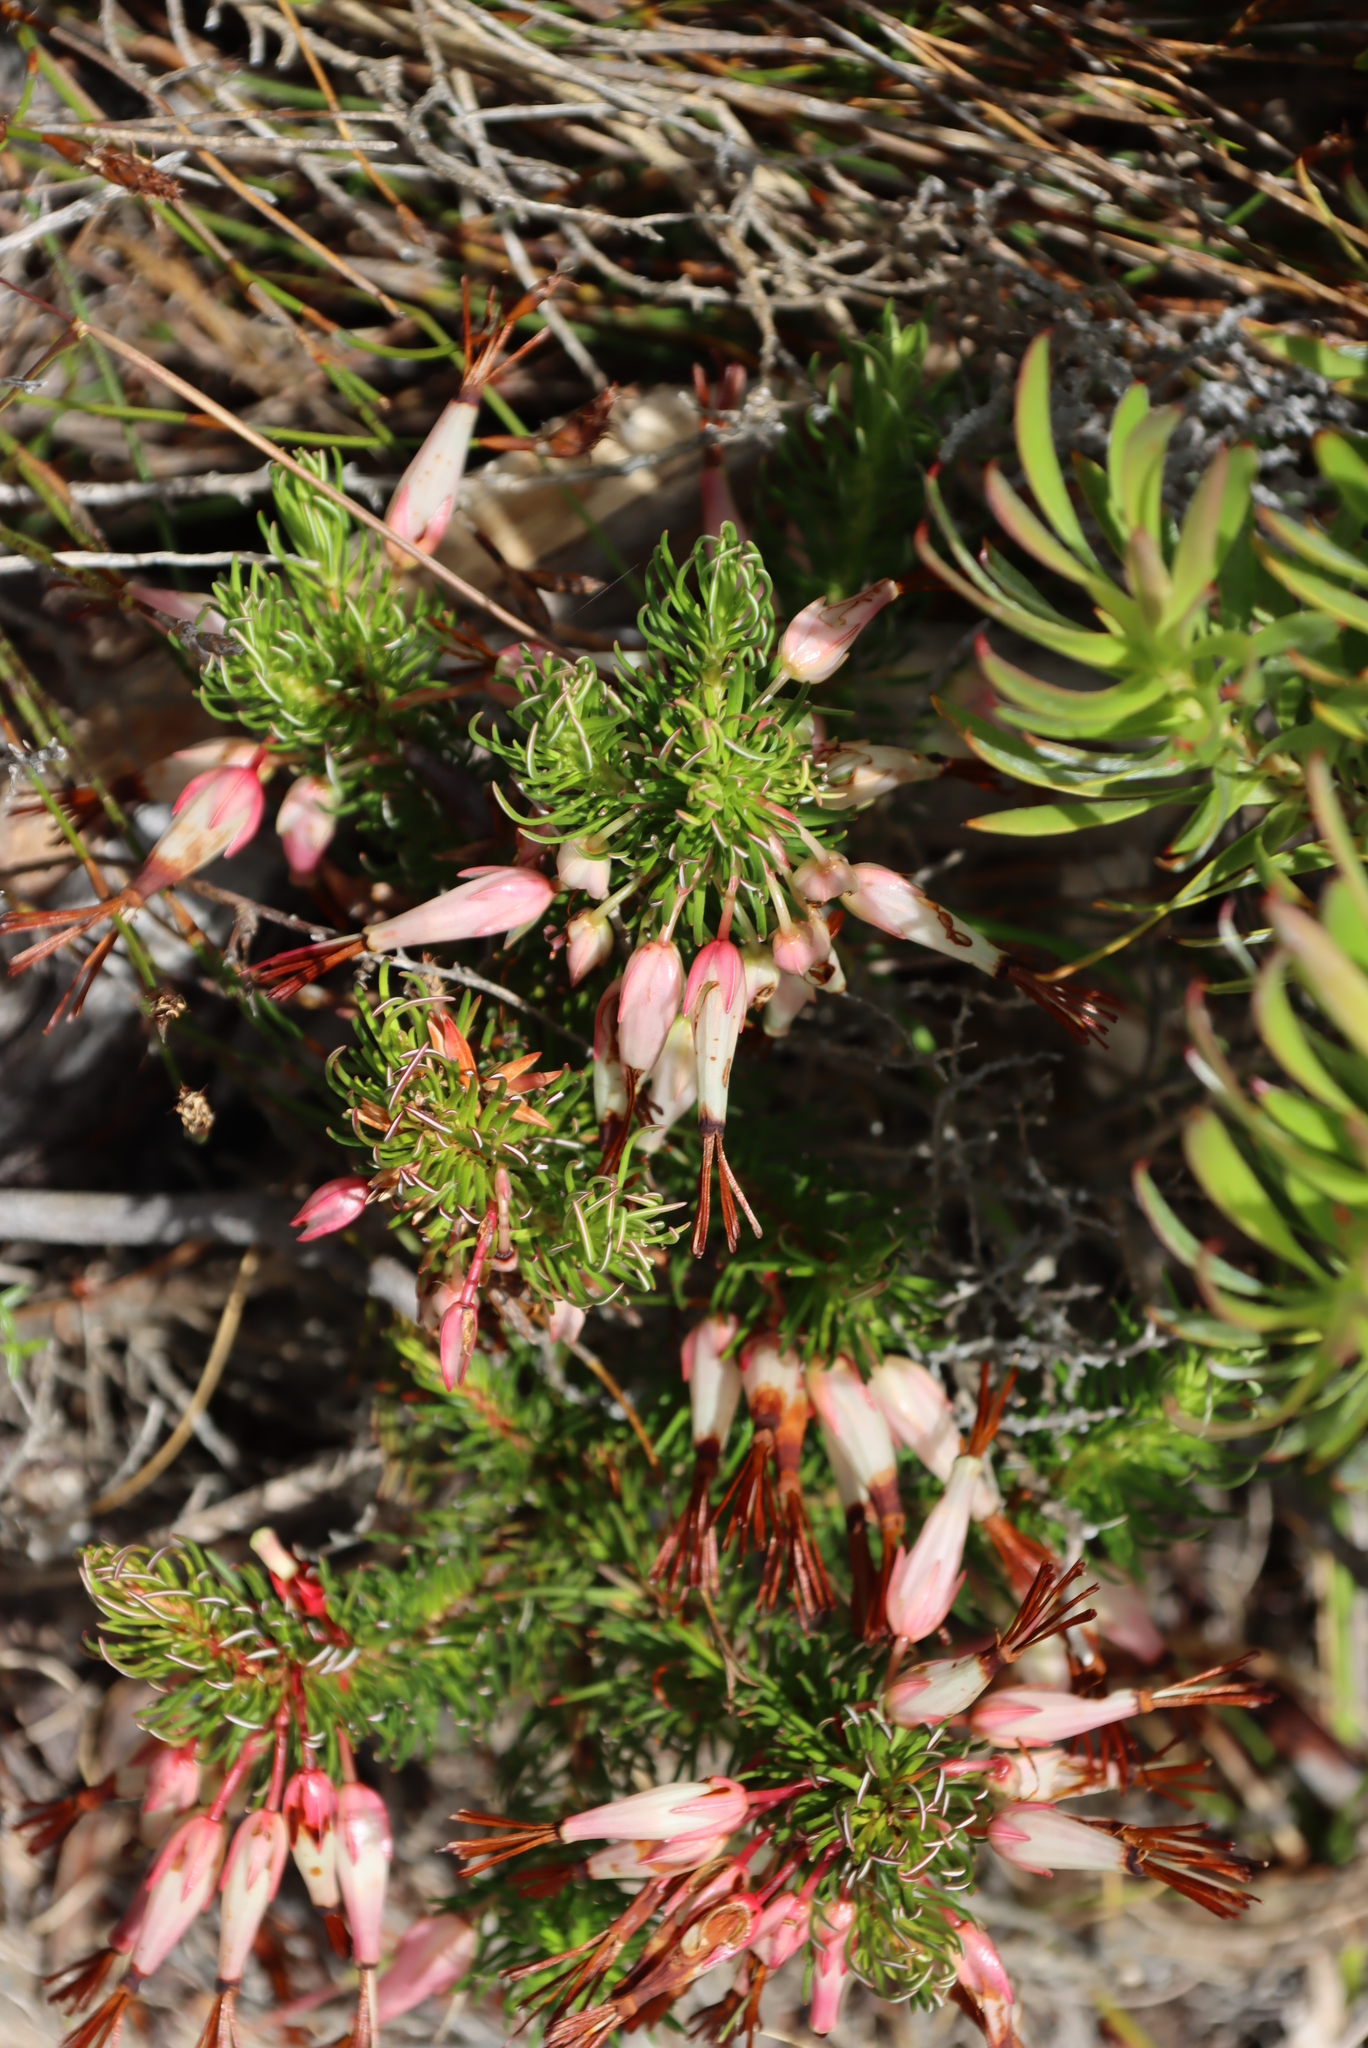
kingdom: Plantae
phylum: Tracheophyta
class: Magnoliopsida
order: Ericales
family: Ericaceae
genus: Erica
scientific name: Erica plukenetii
